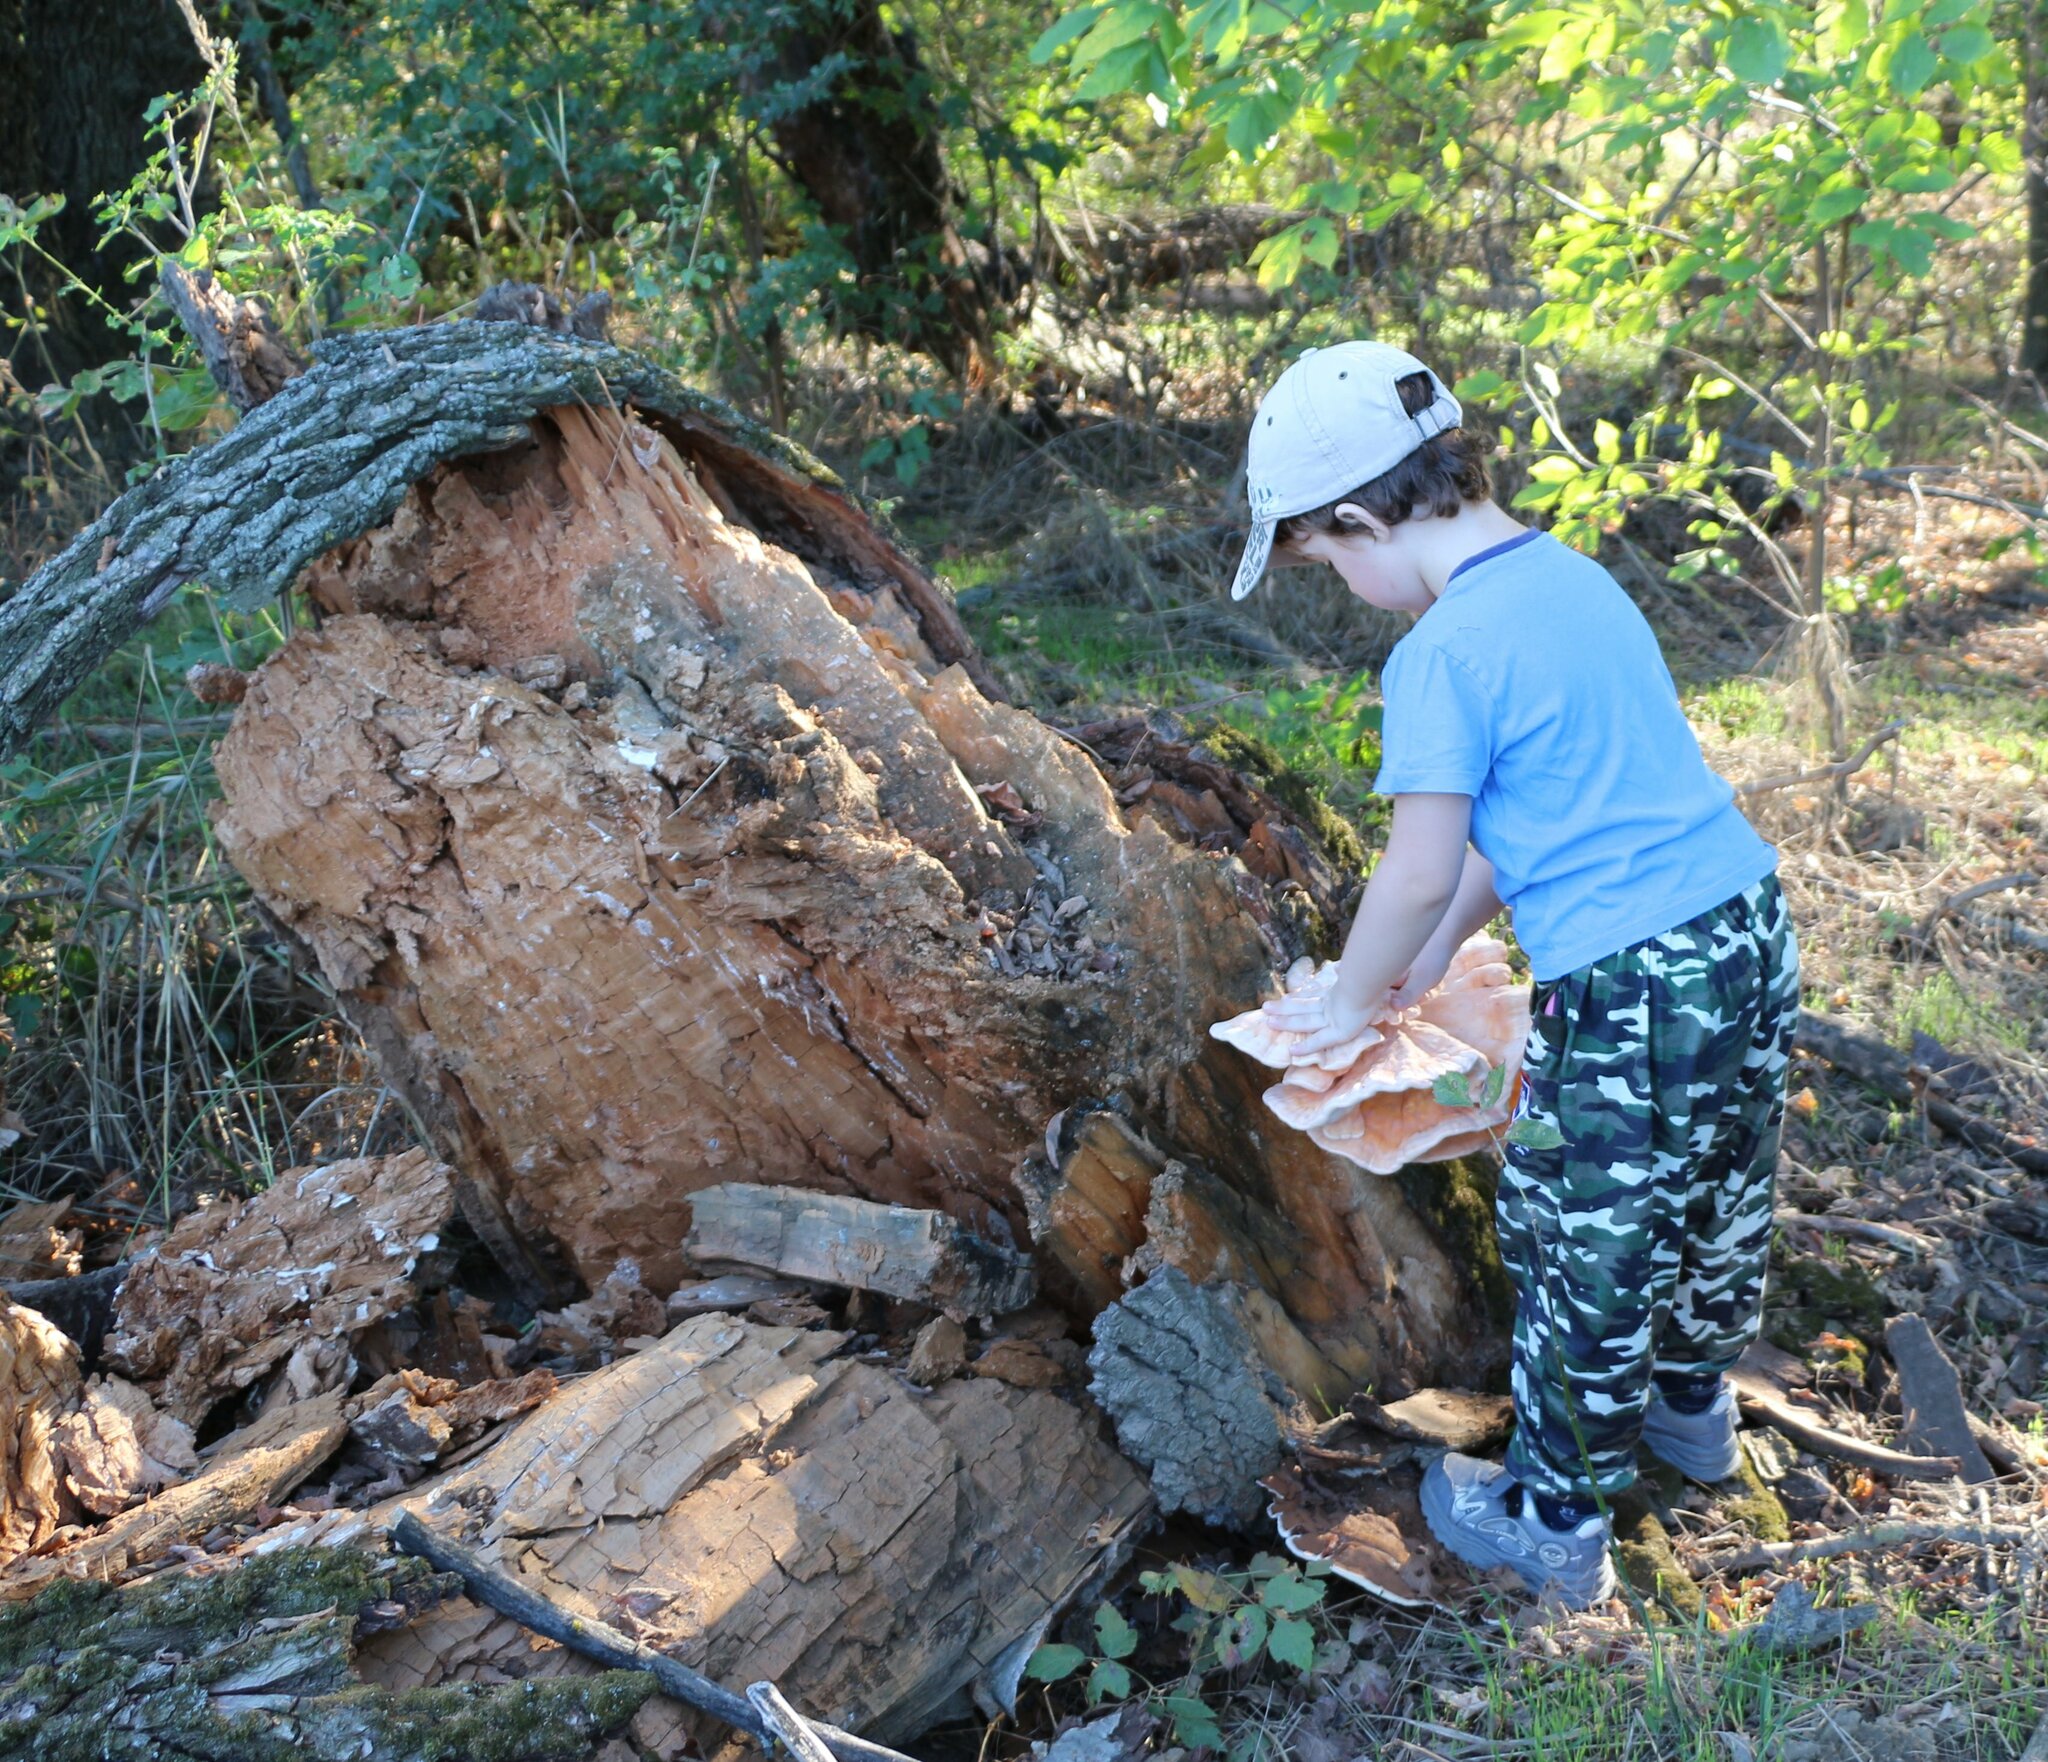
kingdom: Fungi
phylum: Basidiomycota
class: Agaricomycetes
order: Polyporales
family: Laetiporaceae
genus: Laetiporus
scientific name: Laetiporus sulphureus
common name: Chicken of the woods
